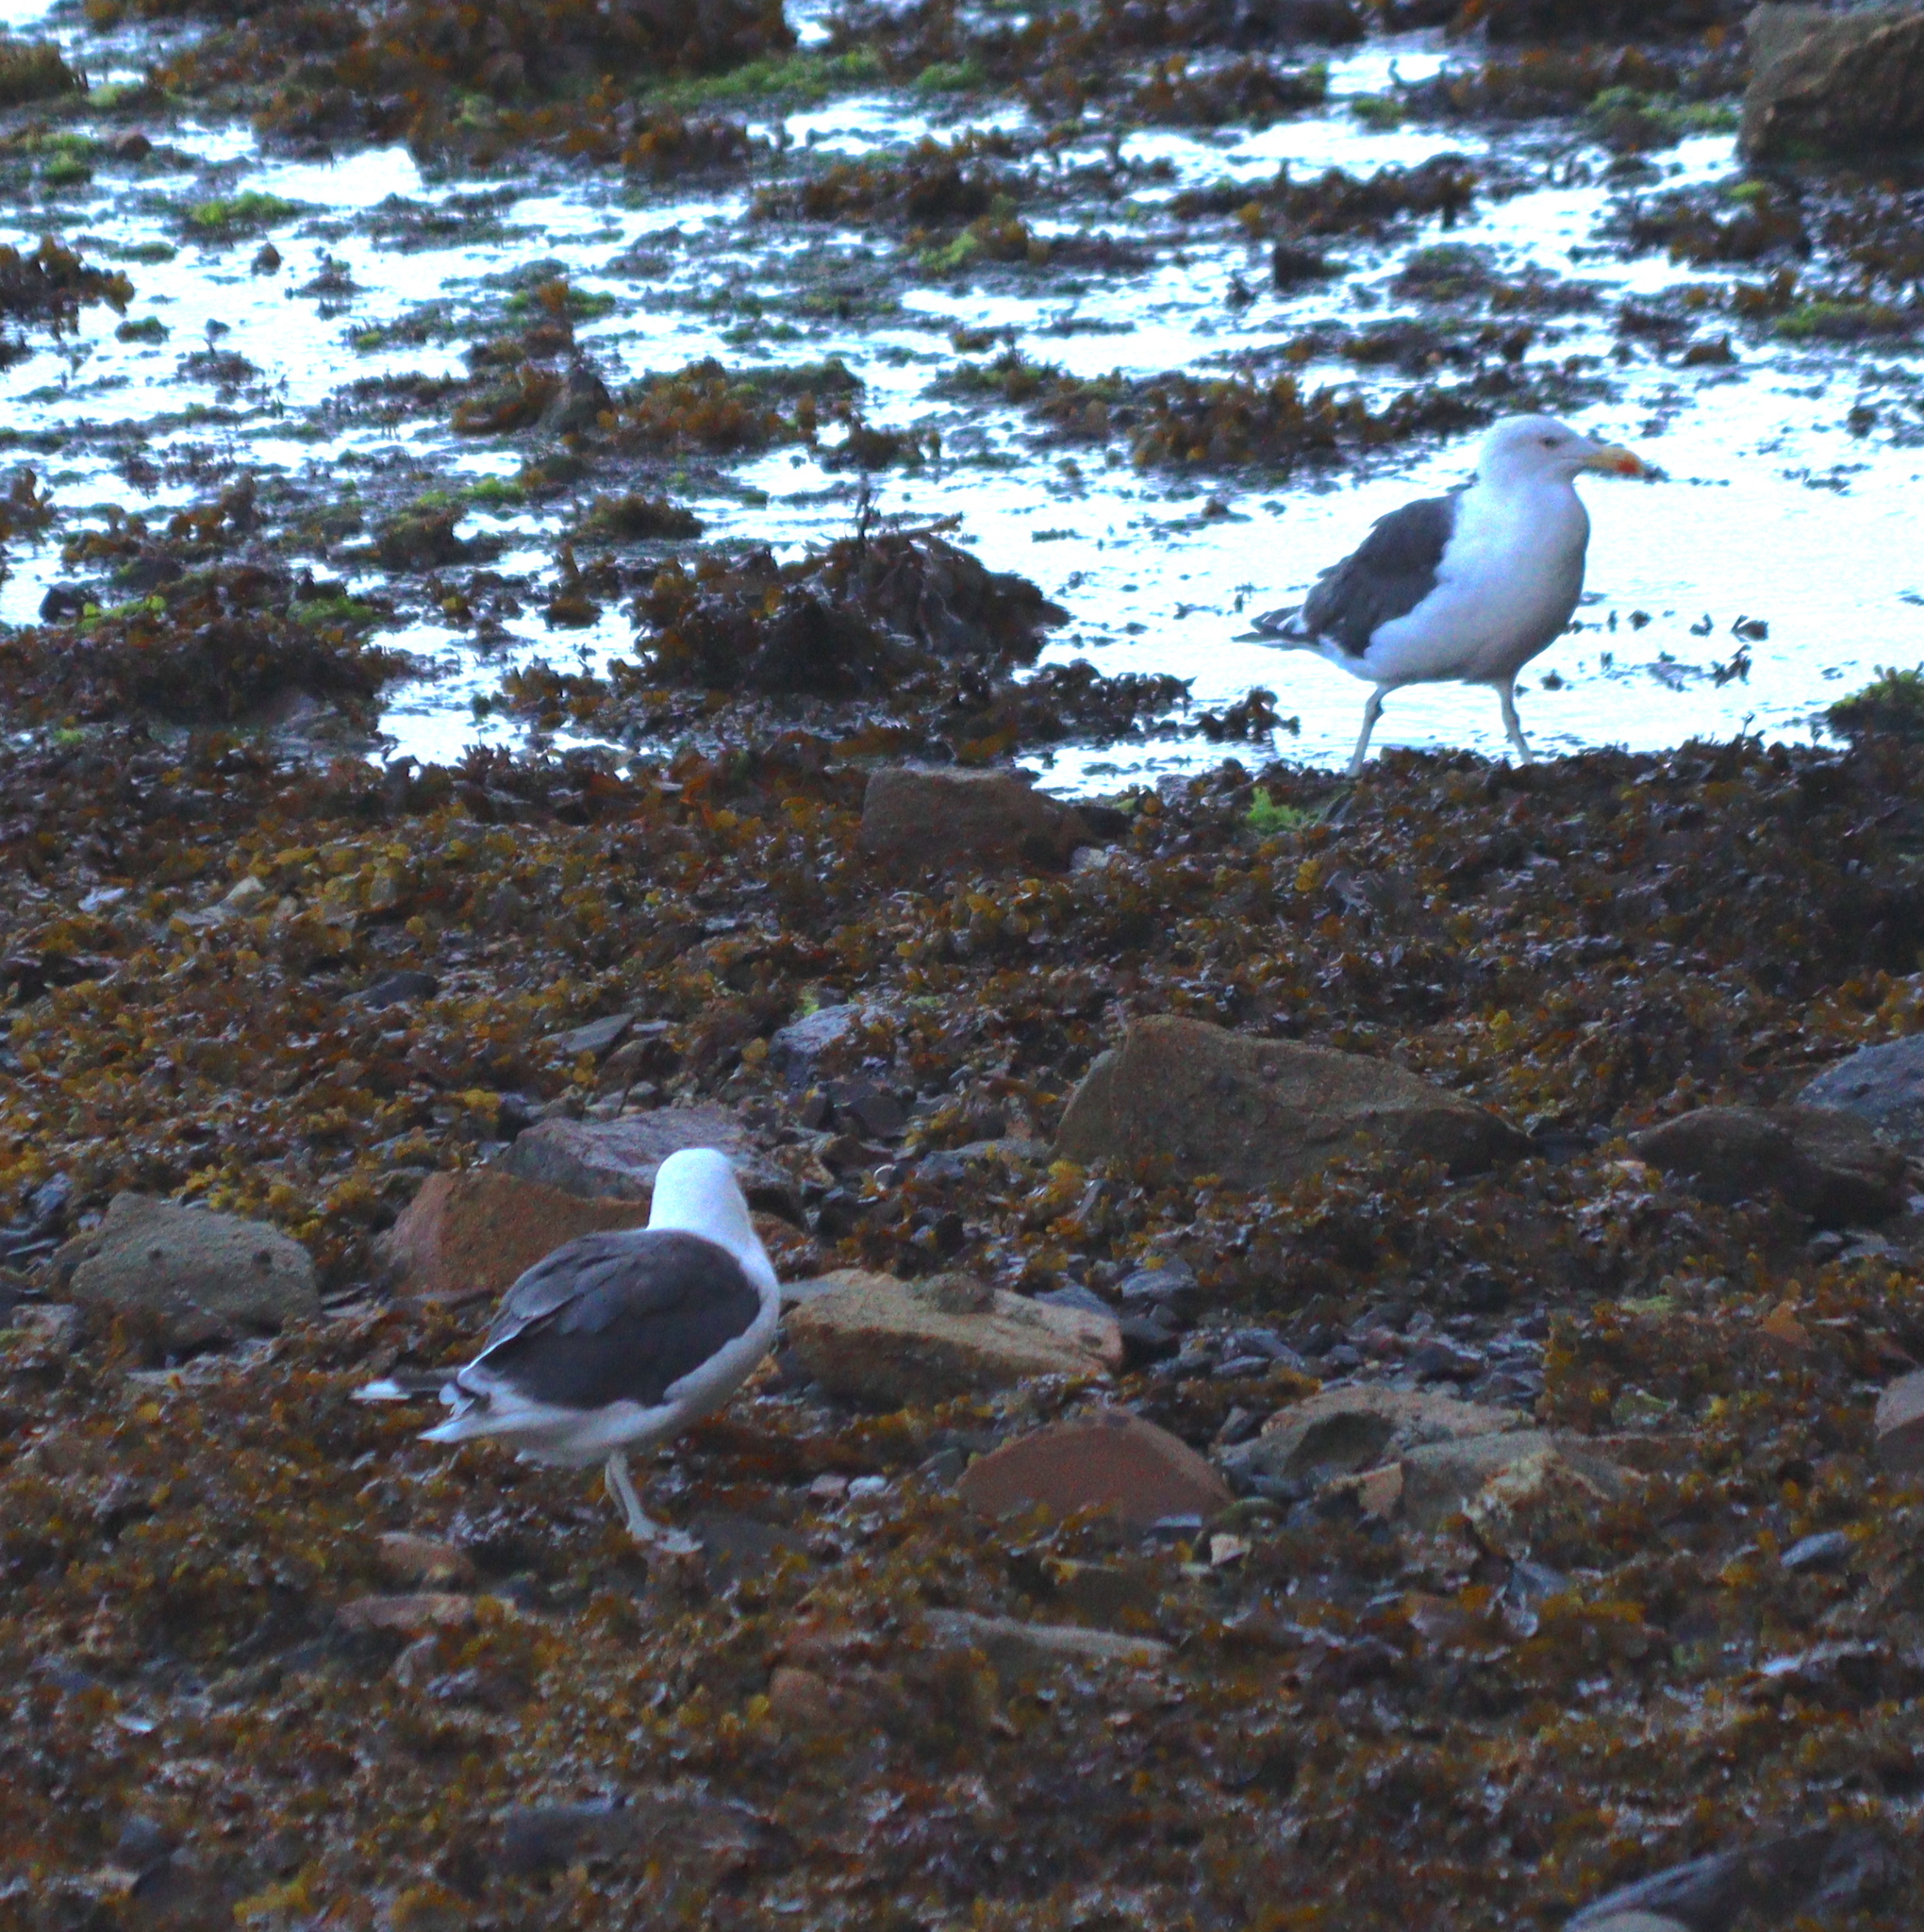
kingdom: Animalia
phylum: Chordata
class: Aves
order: Charadriiformes
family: Laridae
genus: Larus
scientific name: Larus marinus
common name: Great black-backed gull
